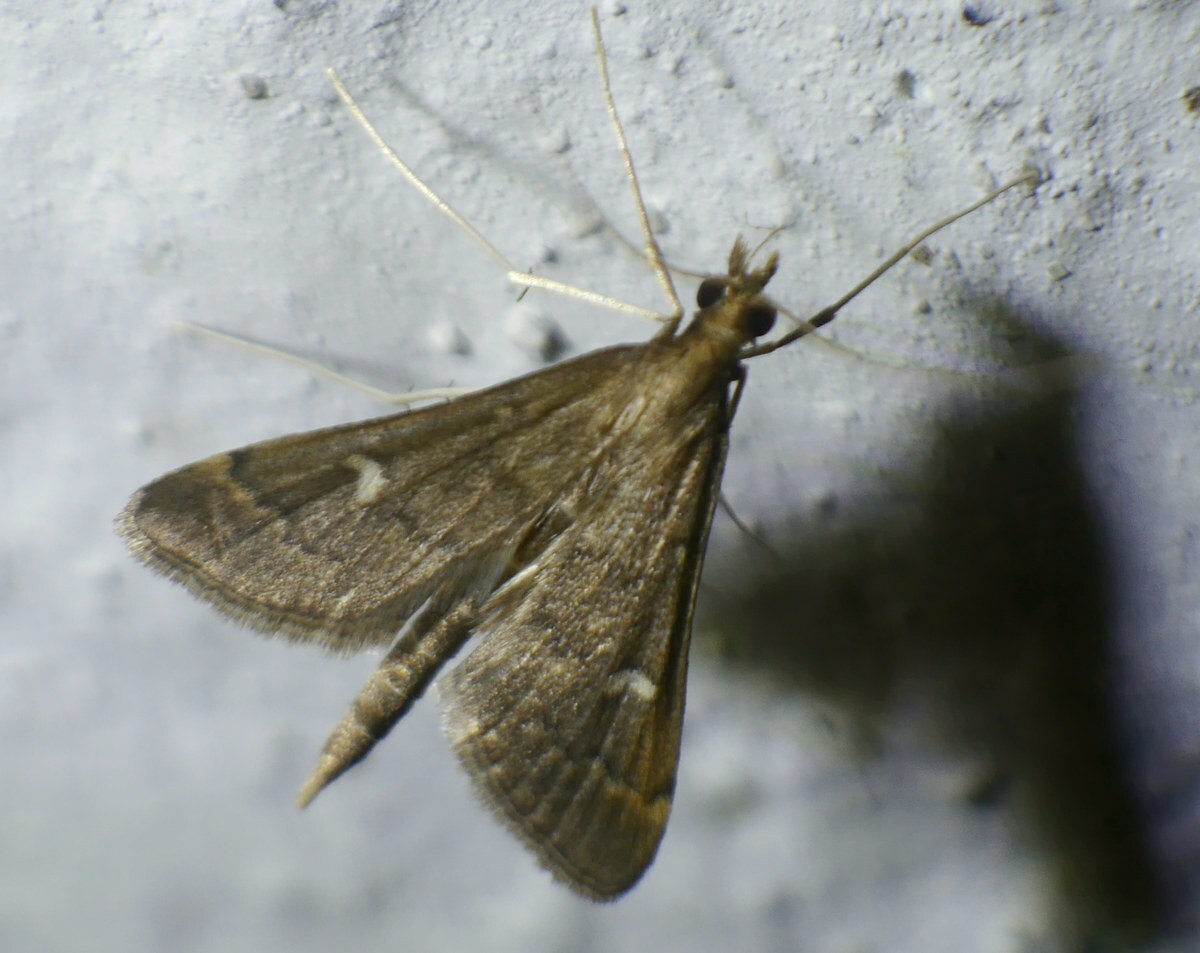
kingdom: Animalia
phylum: Arthropoda
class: Insecta
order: Lepidoptera
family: Crambidae
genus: Stenia
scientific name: Stenia Dolicharthria punctalis
